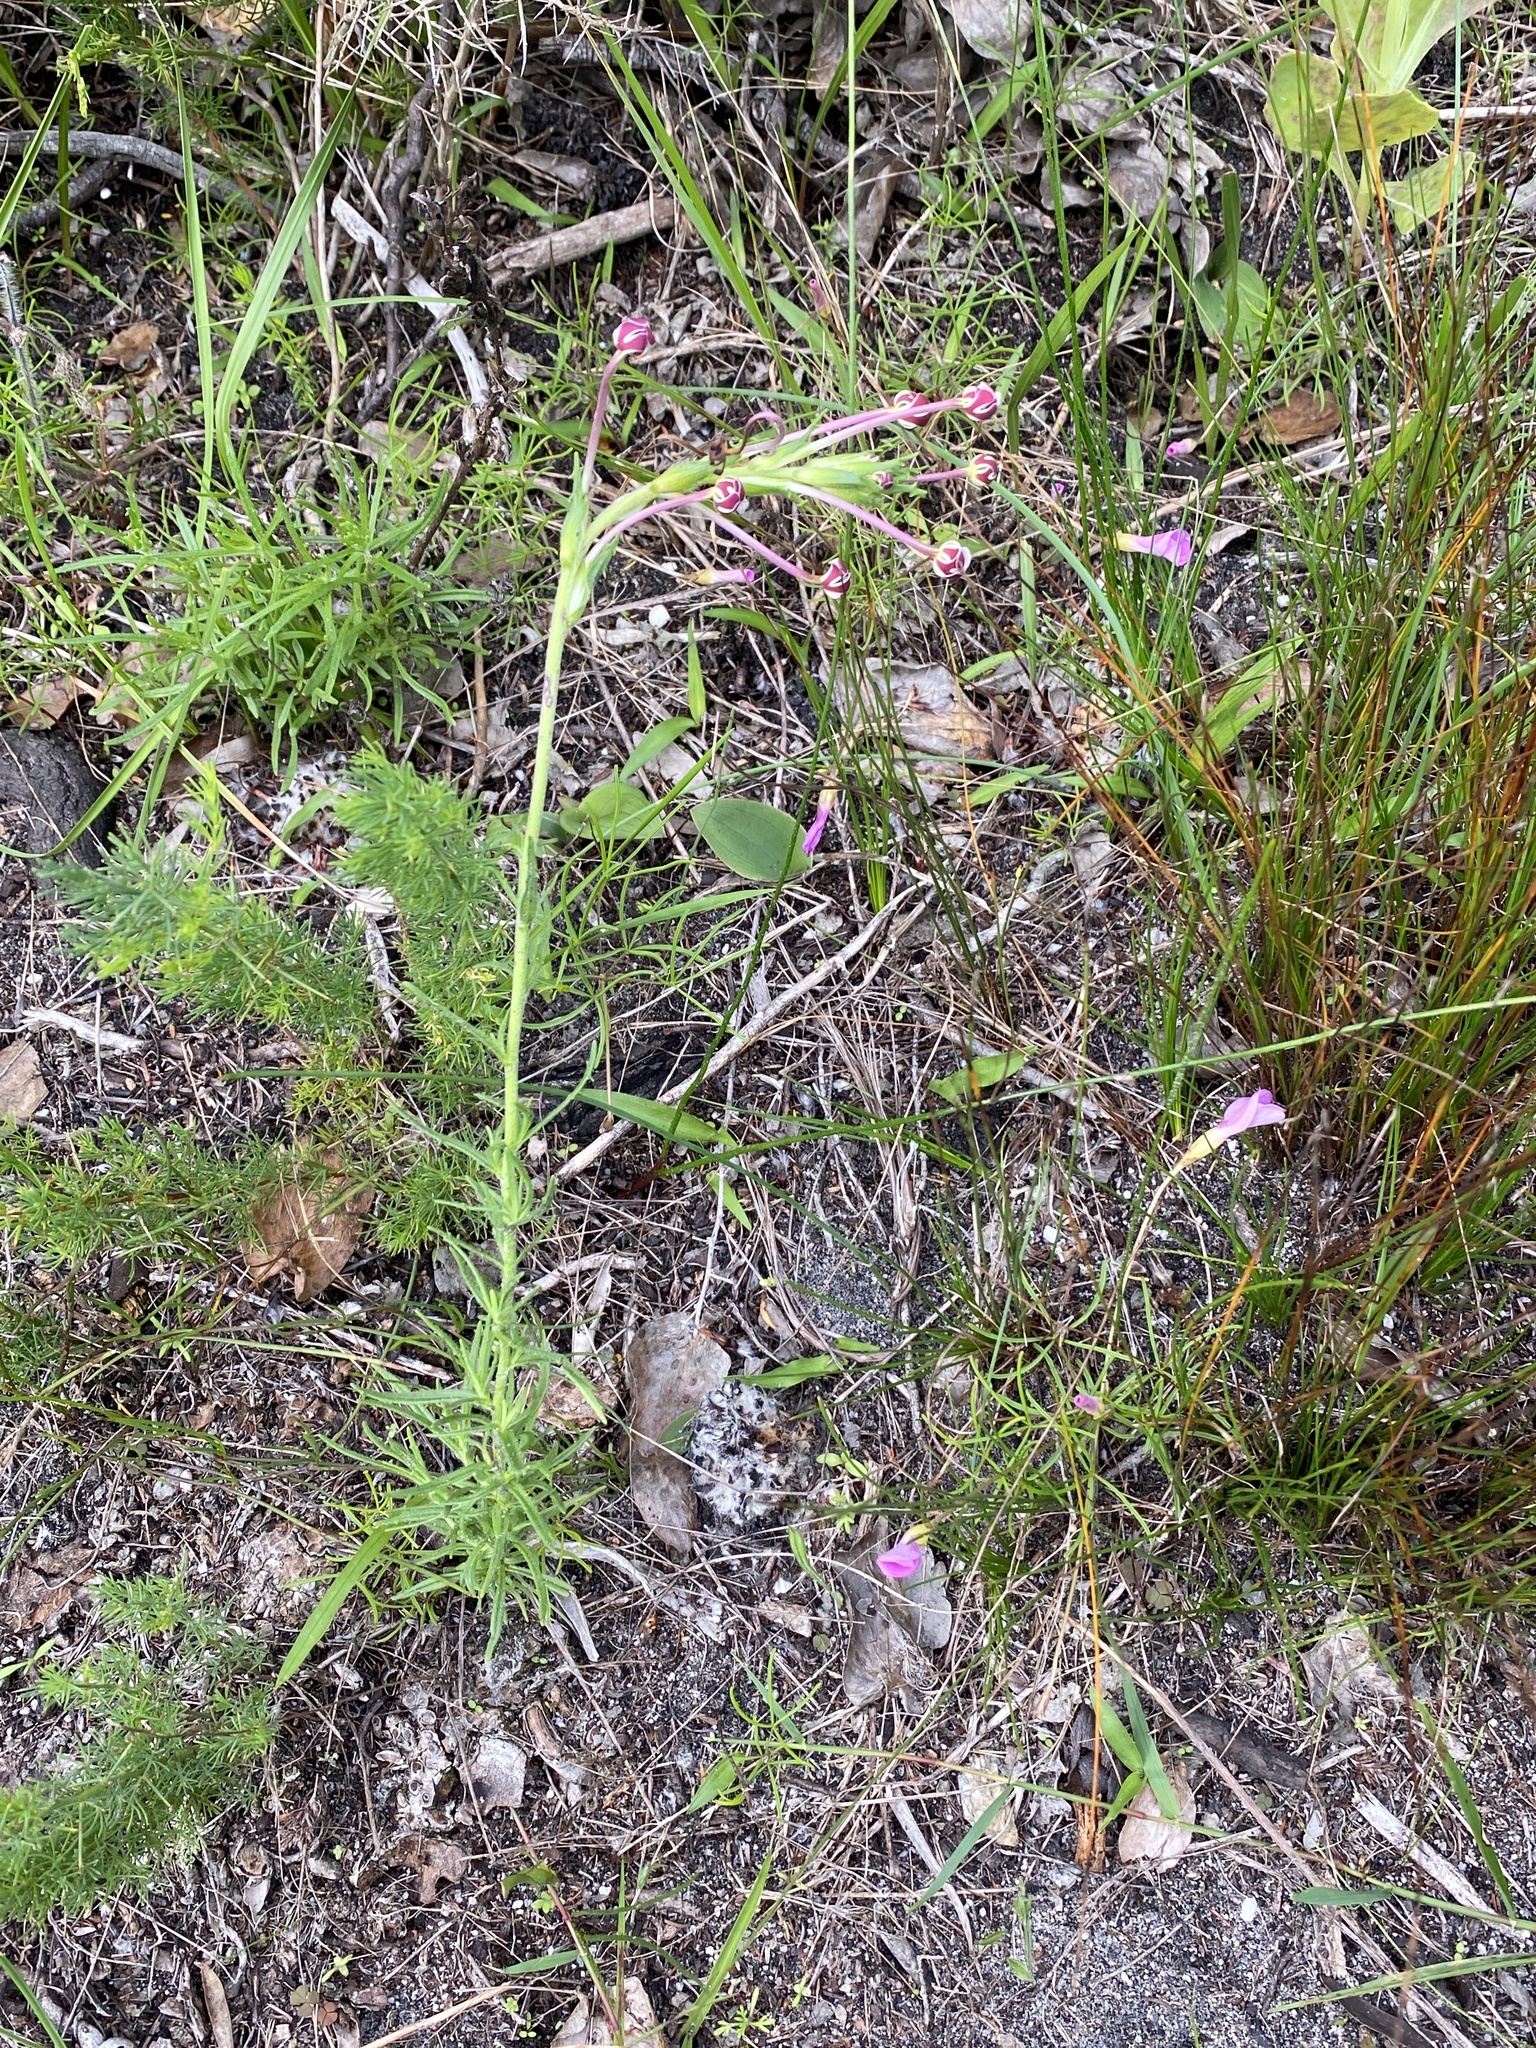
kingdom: Plantae
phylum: Tracheophyta
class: Magnoliopsida
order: Lamiales
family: Scrophulariaceae
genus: Zaluzianskya
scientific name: Zaluzianskya capensis
